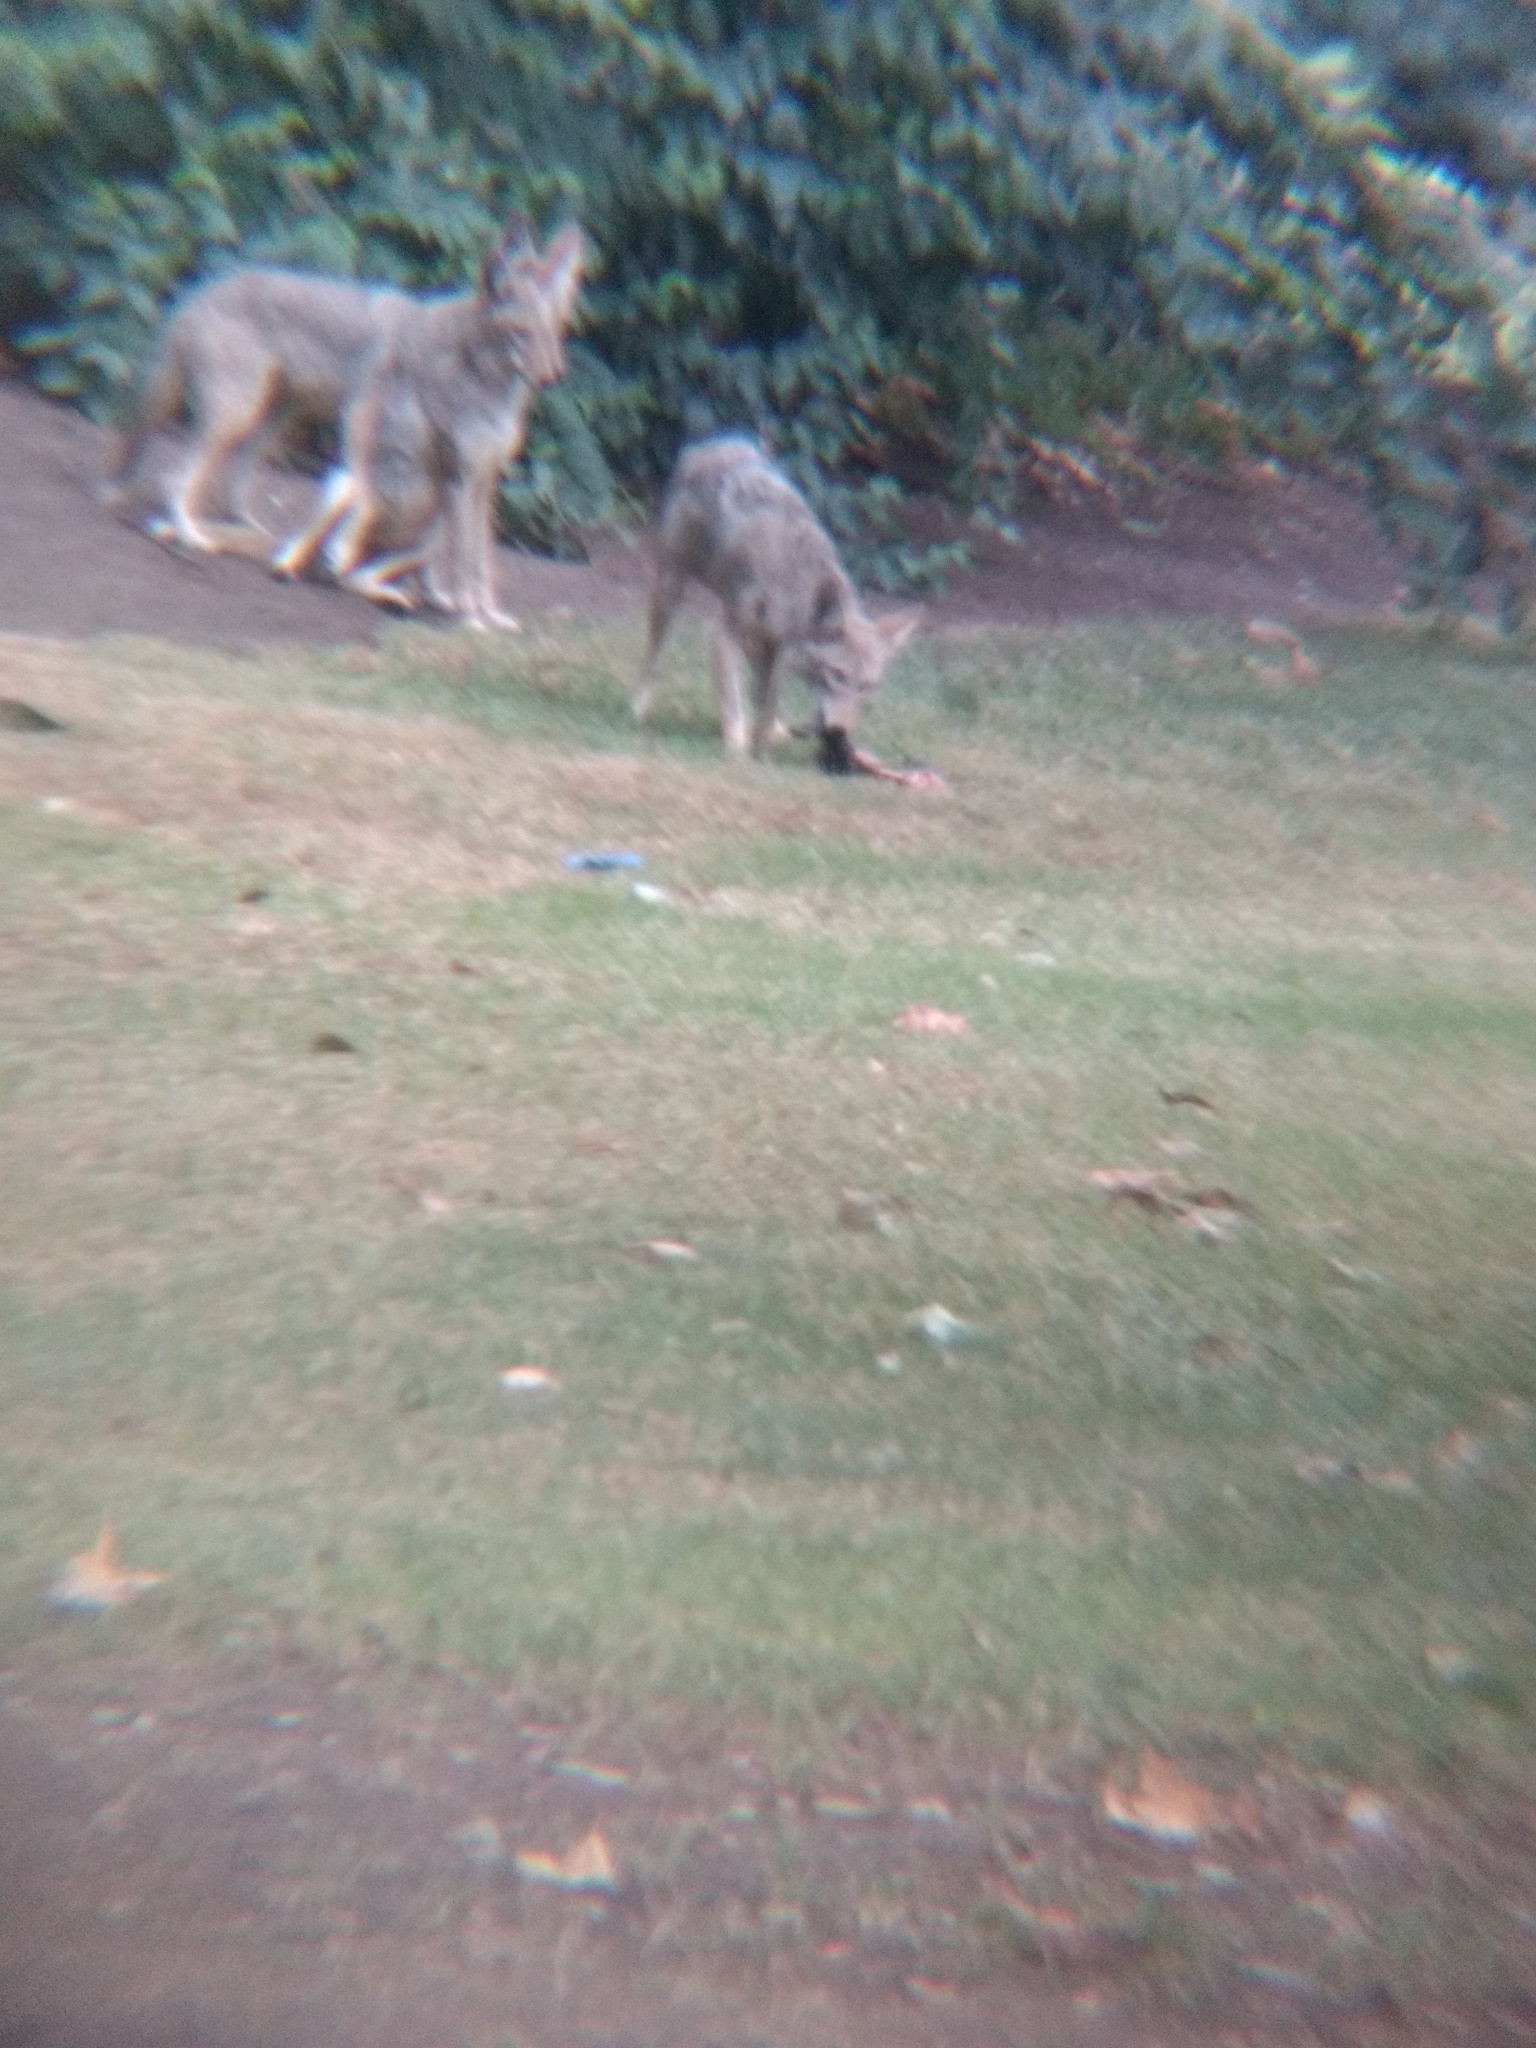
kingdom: Animalia
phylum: Chordata
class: Mammalia
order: Carnivora
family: Canidae
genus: Canis
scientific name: Canis latrans
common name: Coyote
